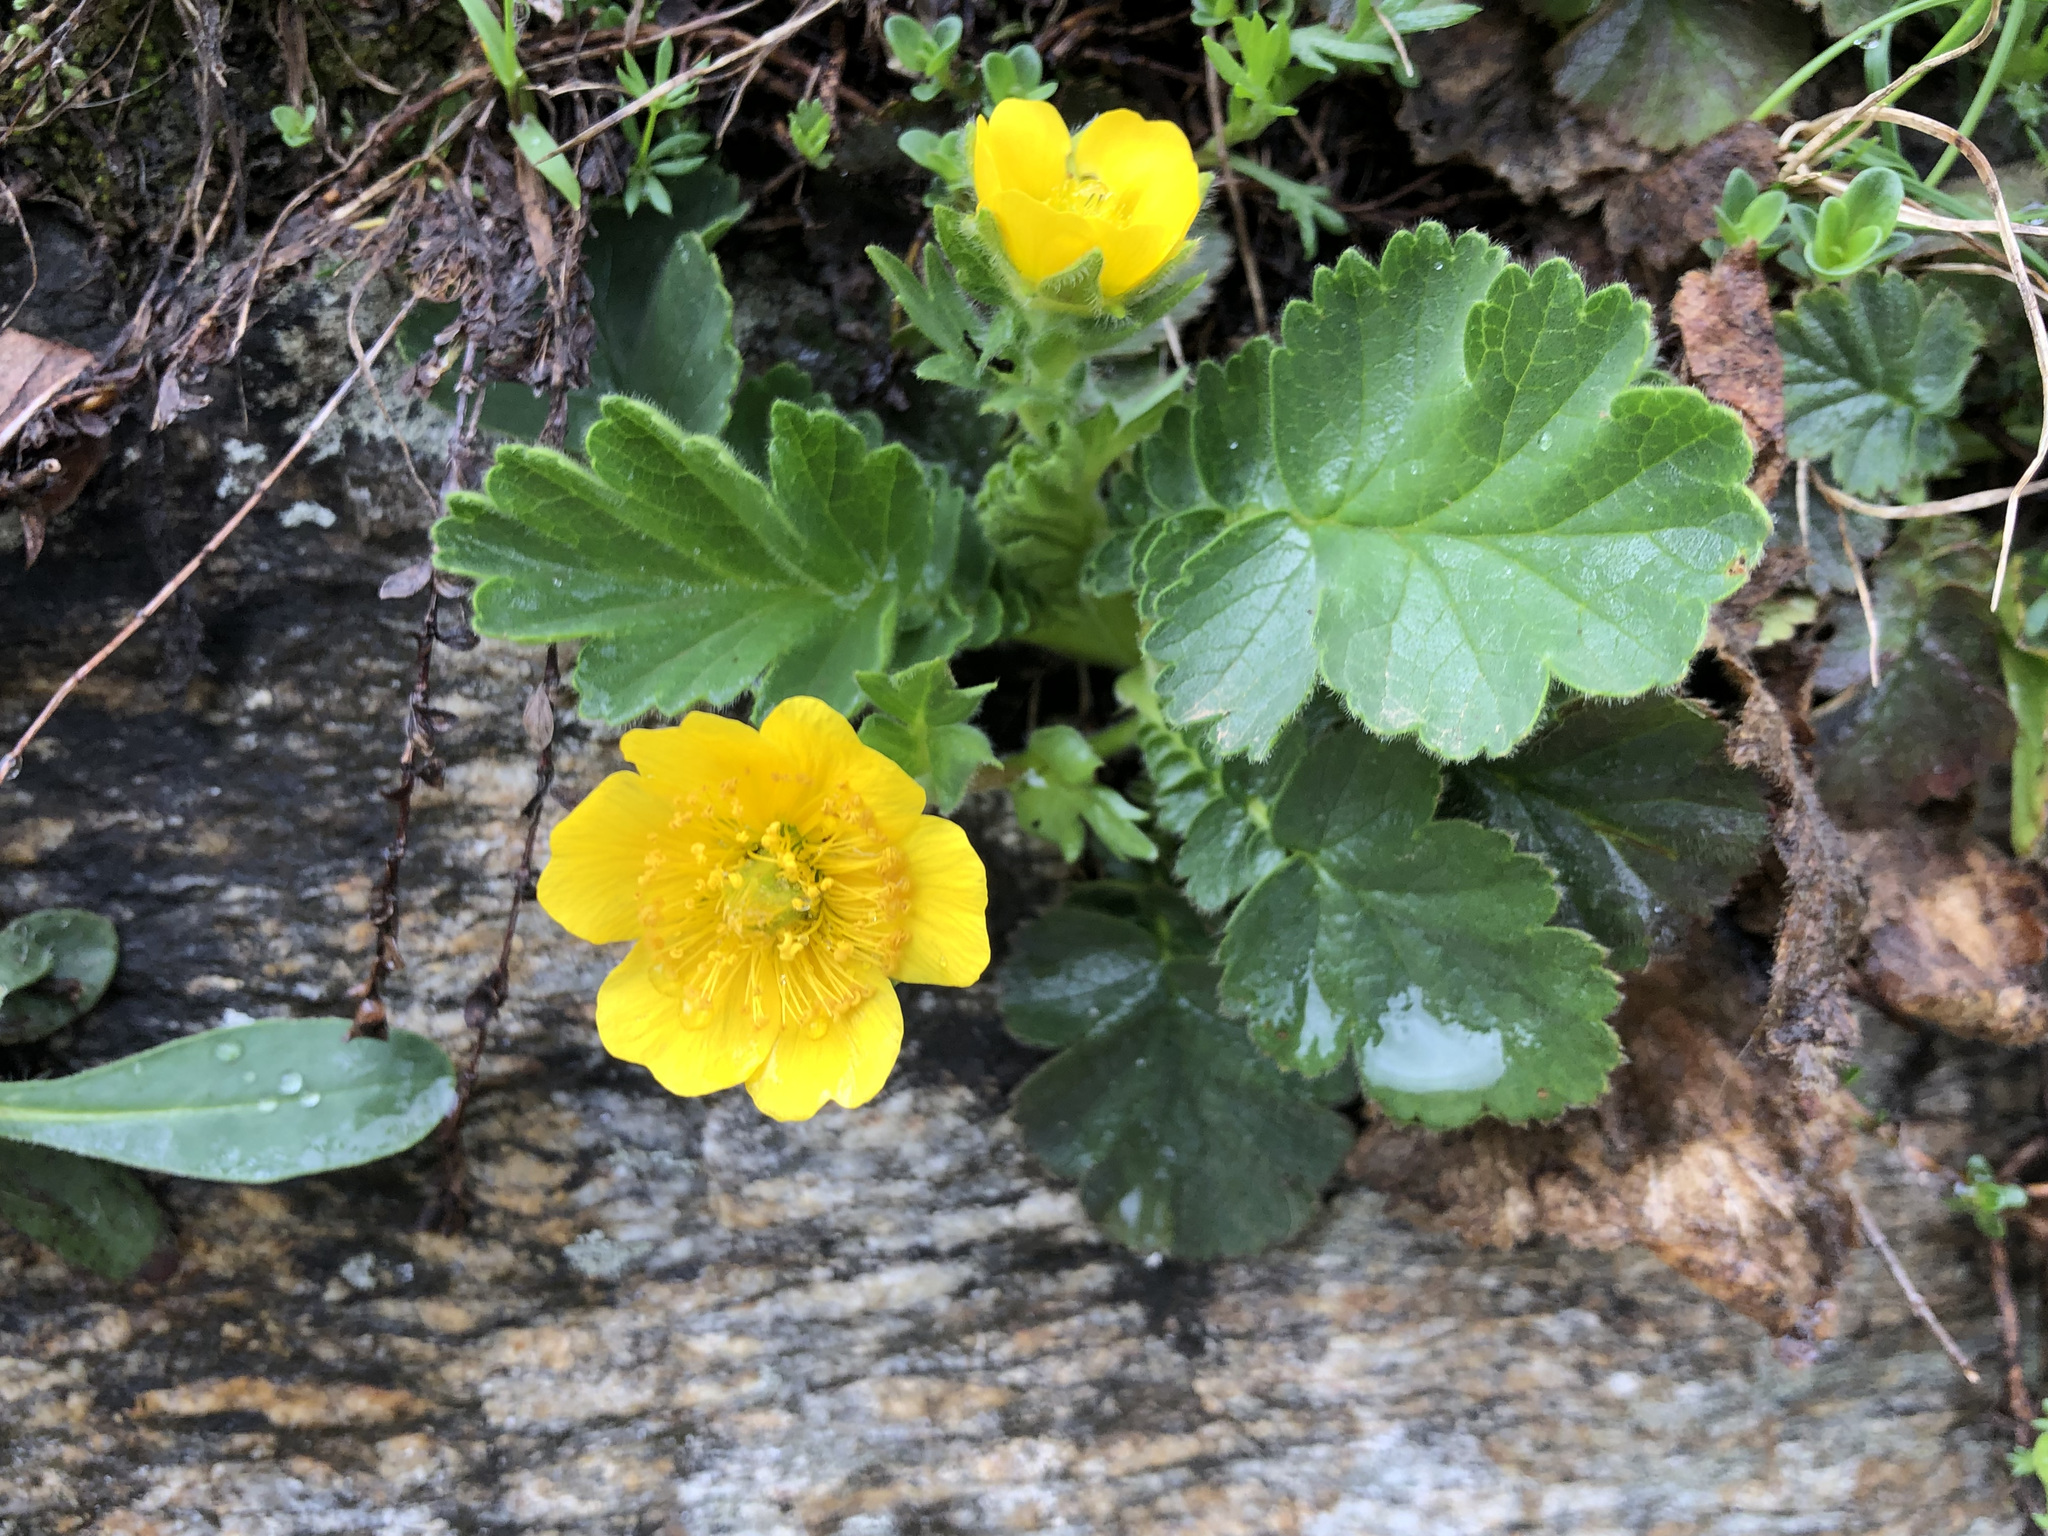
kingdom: Plantae
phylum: Tracheophyta
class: Magnoliopsida
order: Rosales
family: Rosaceae
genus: Geum
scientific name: Geum montanum
